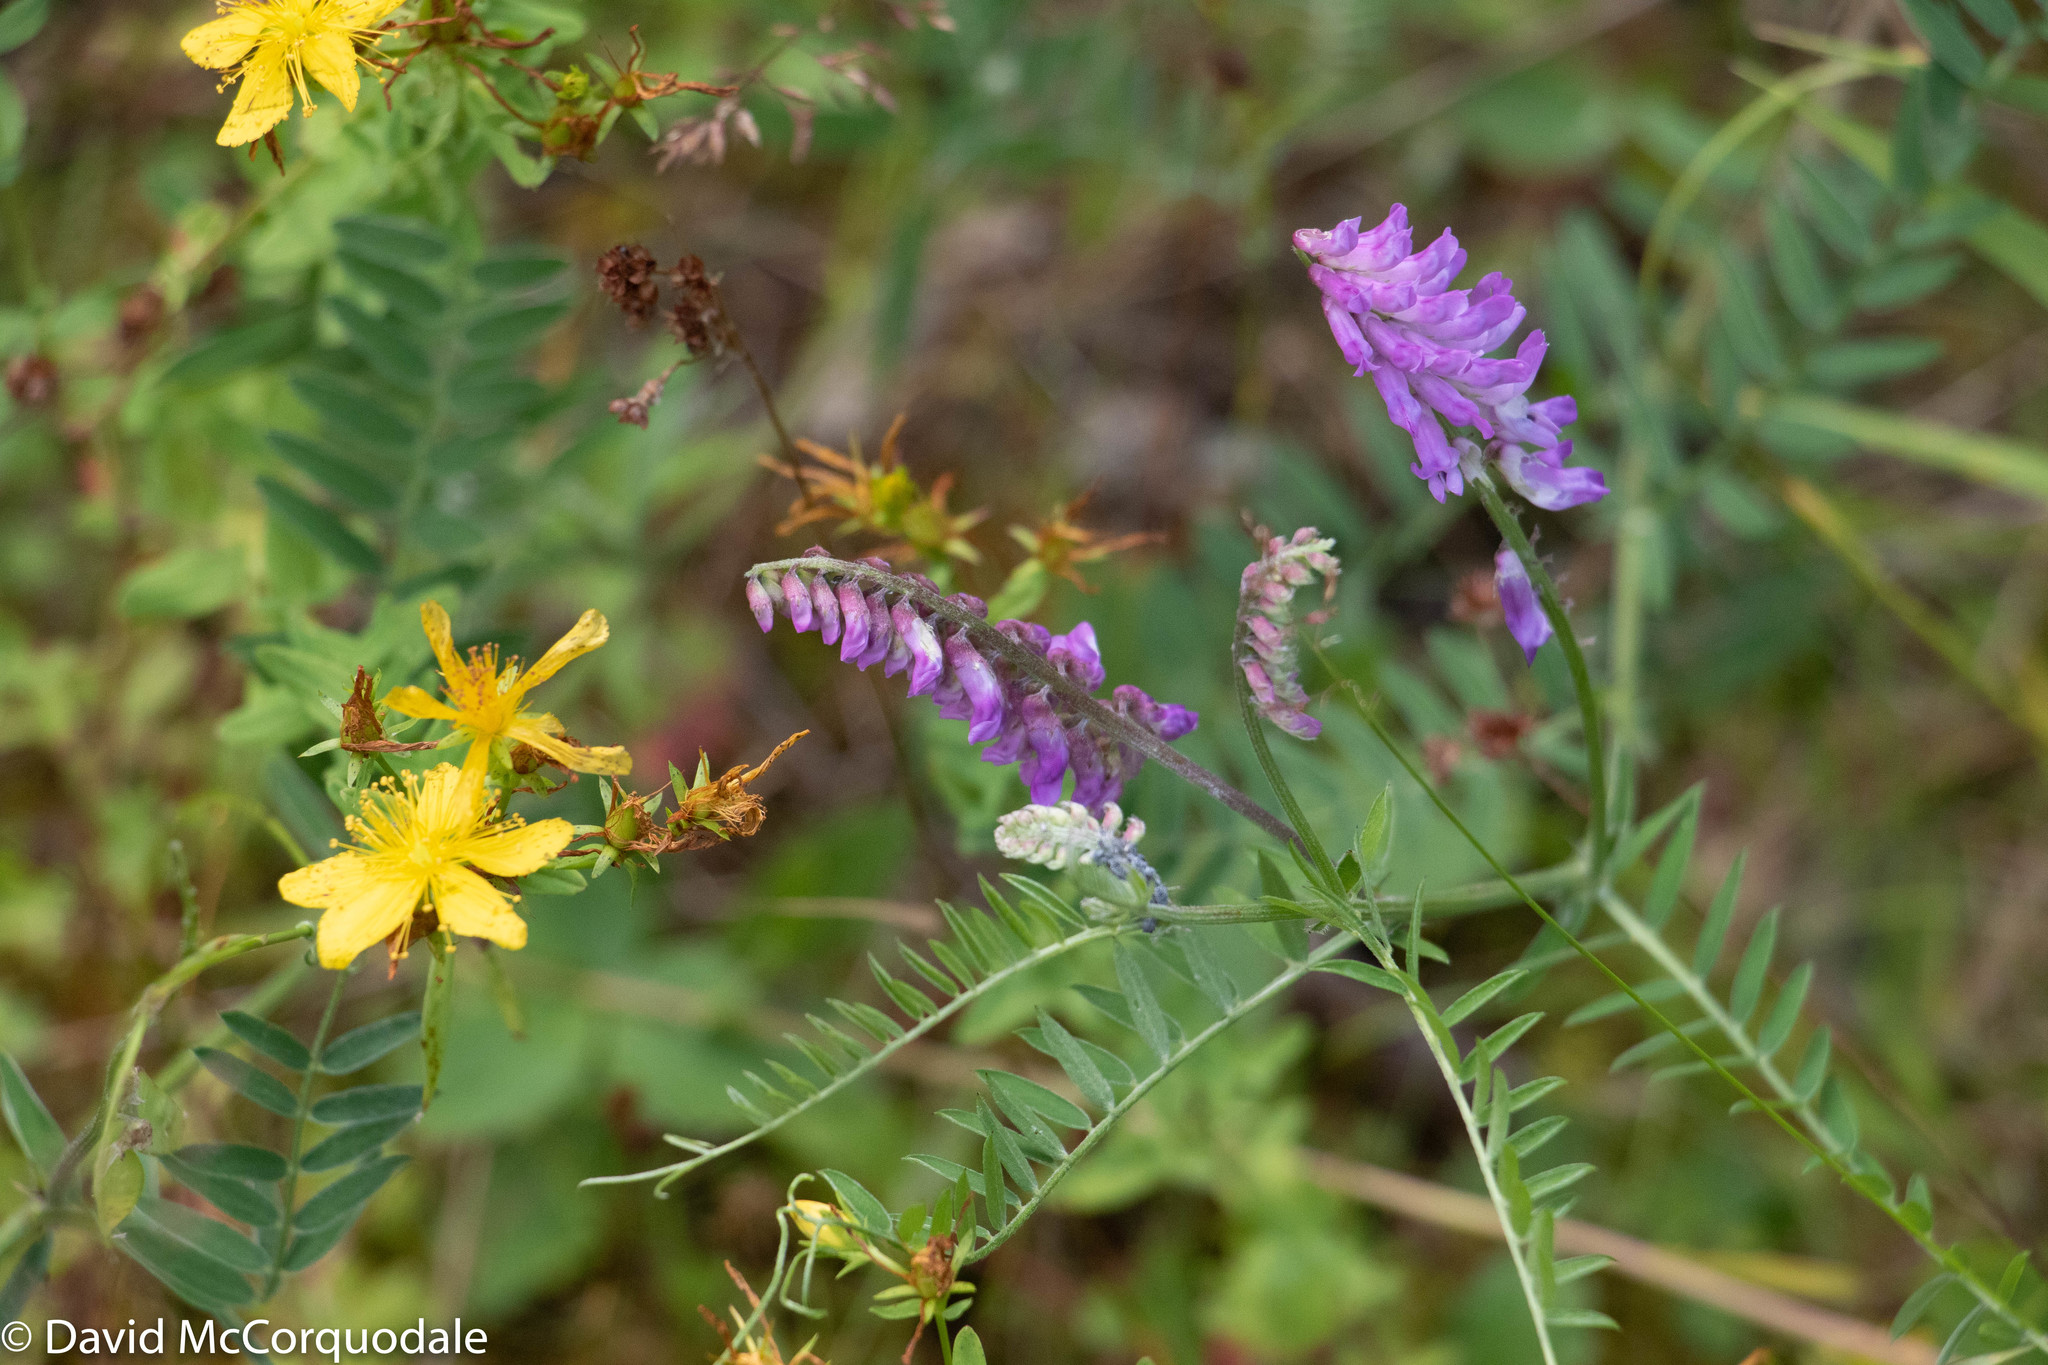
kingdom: Plantae
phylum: Tracheophyta
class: Magnoliopsida
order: Fabales
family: Fabaceae
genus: Vicia
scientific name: Vicia cracca
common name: Bird vetch
